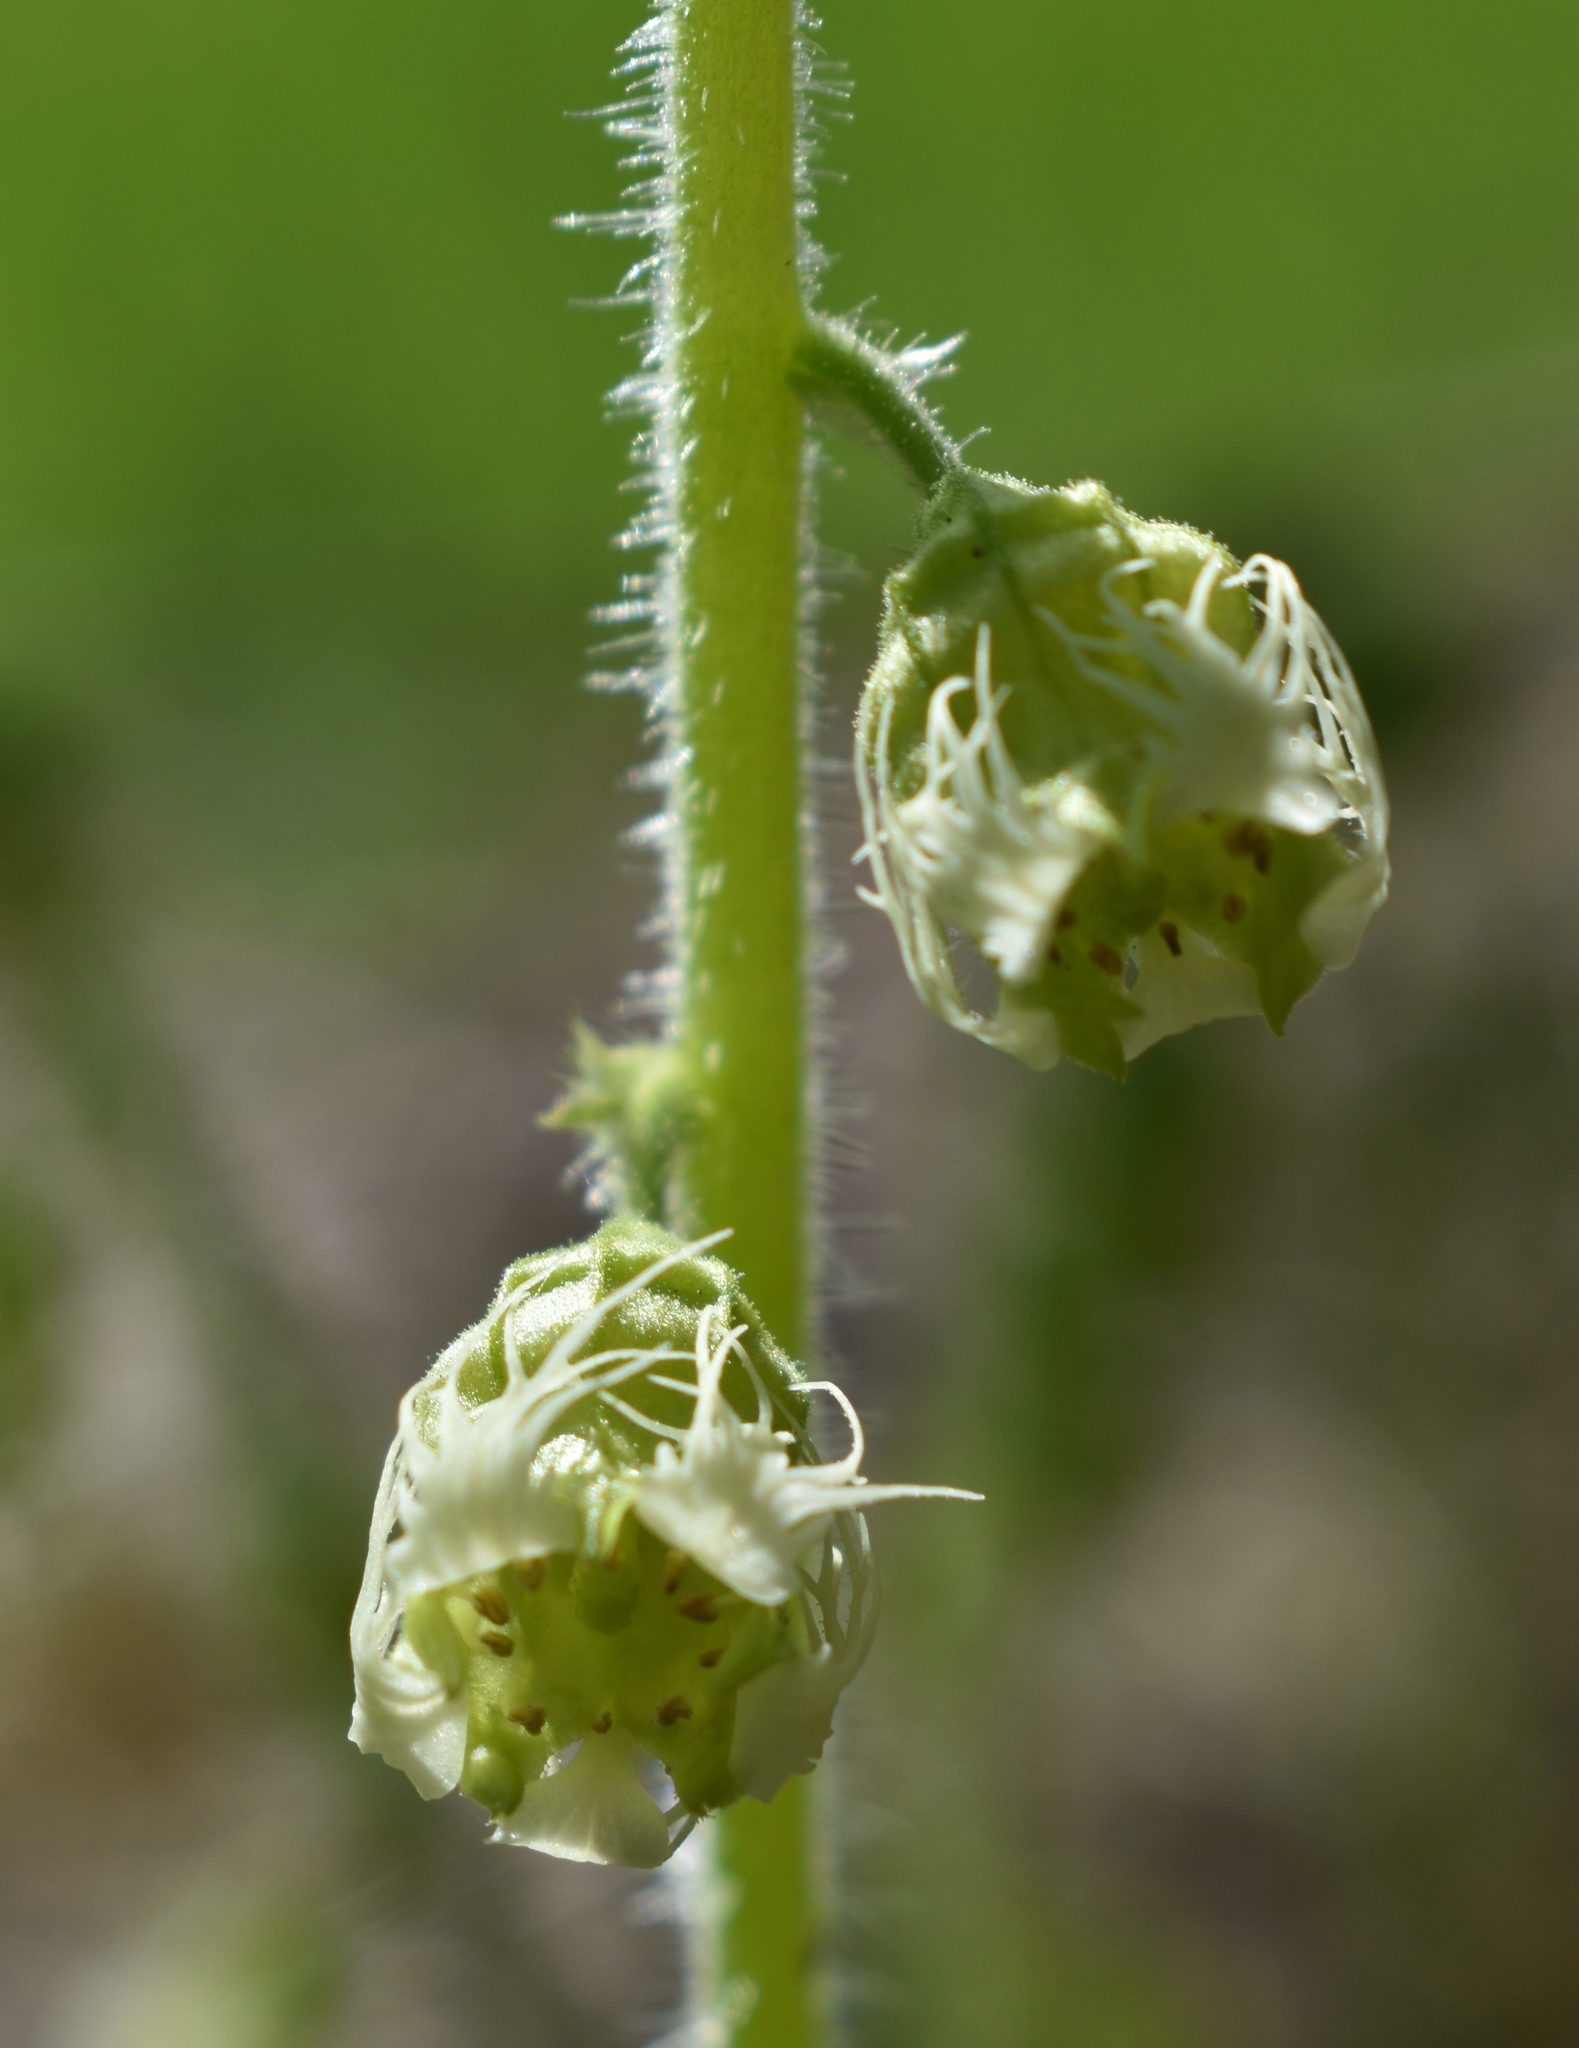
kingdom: Plantae
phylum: Tracheophyta
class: Magnoliopsida
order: Saxifragales
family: Saxifragaceae
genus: Tellima
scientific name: Tellima grandiflora
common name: Fringecups
